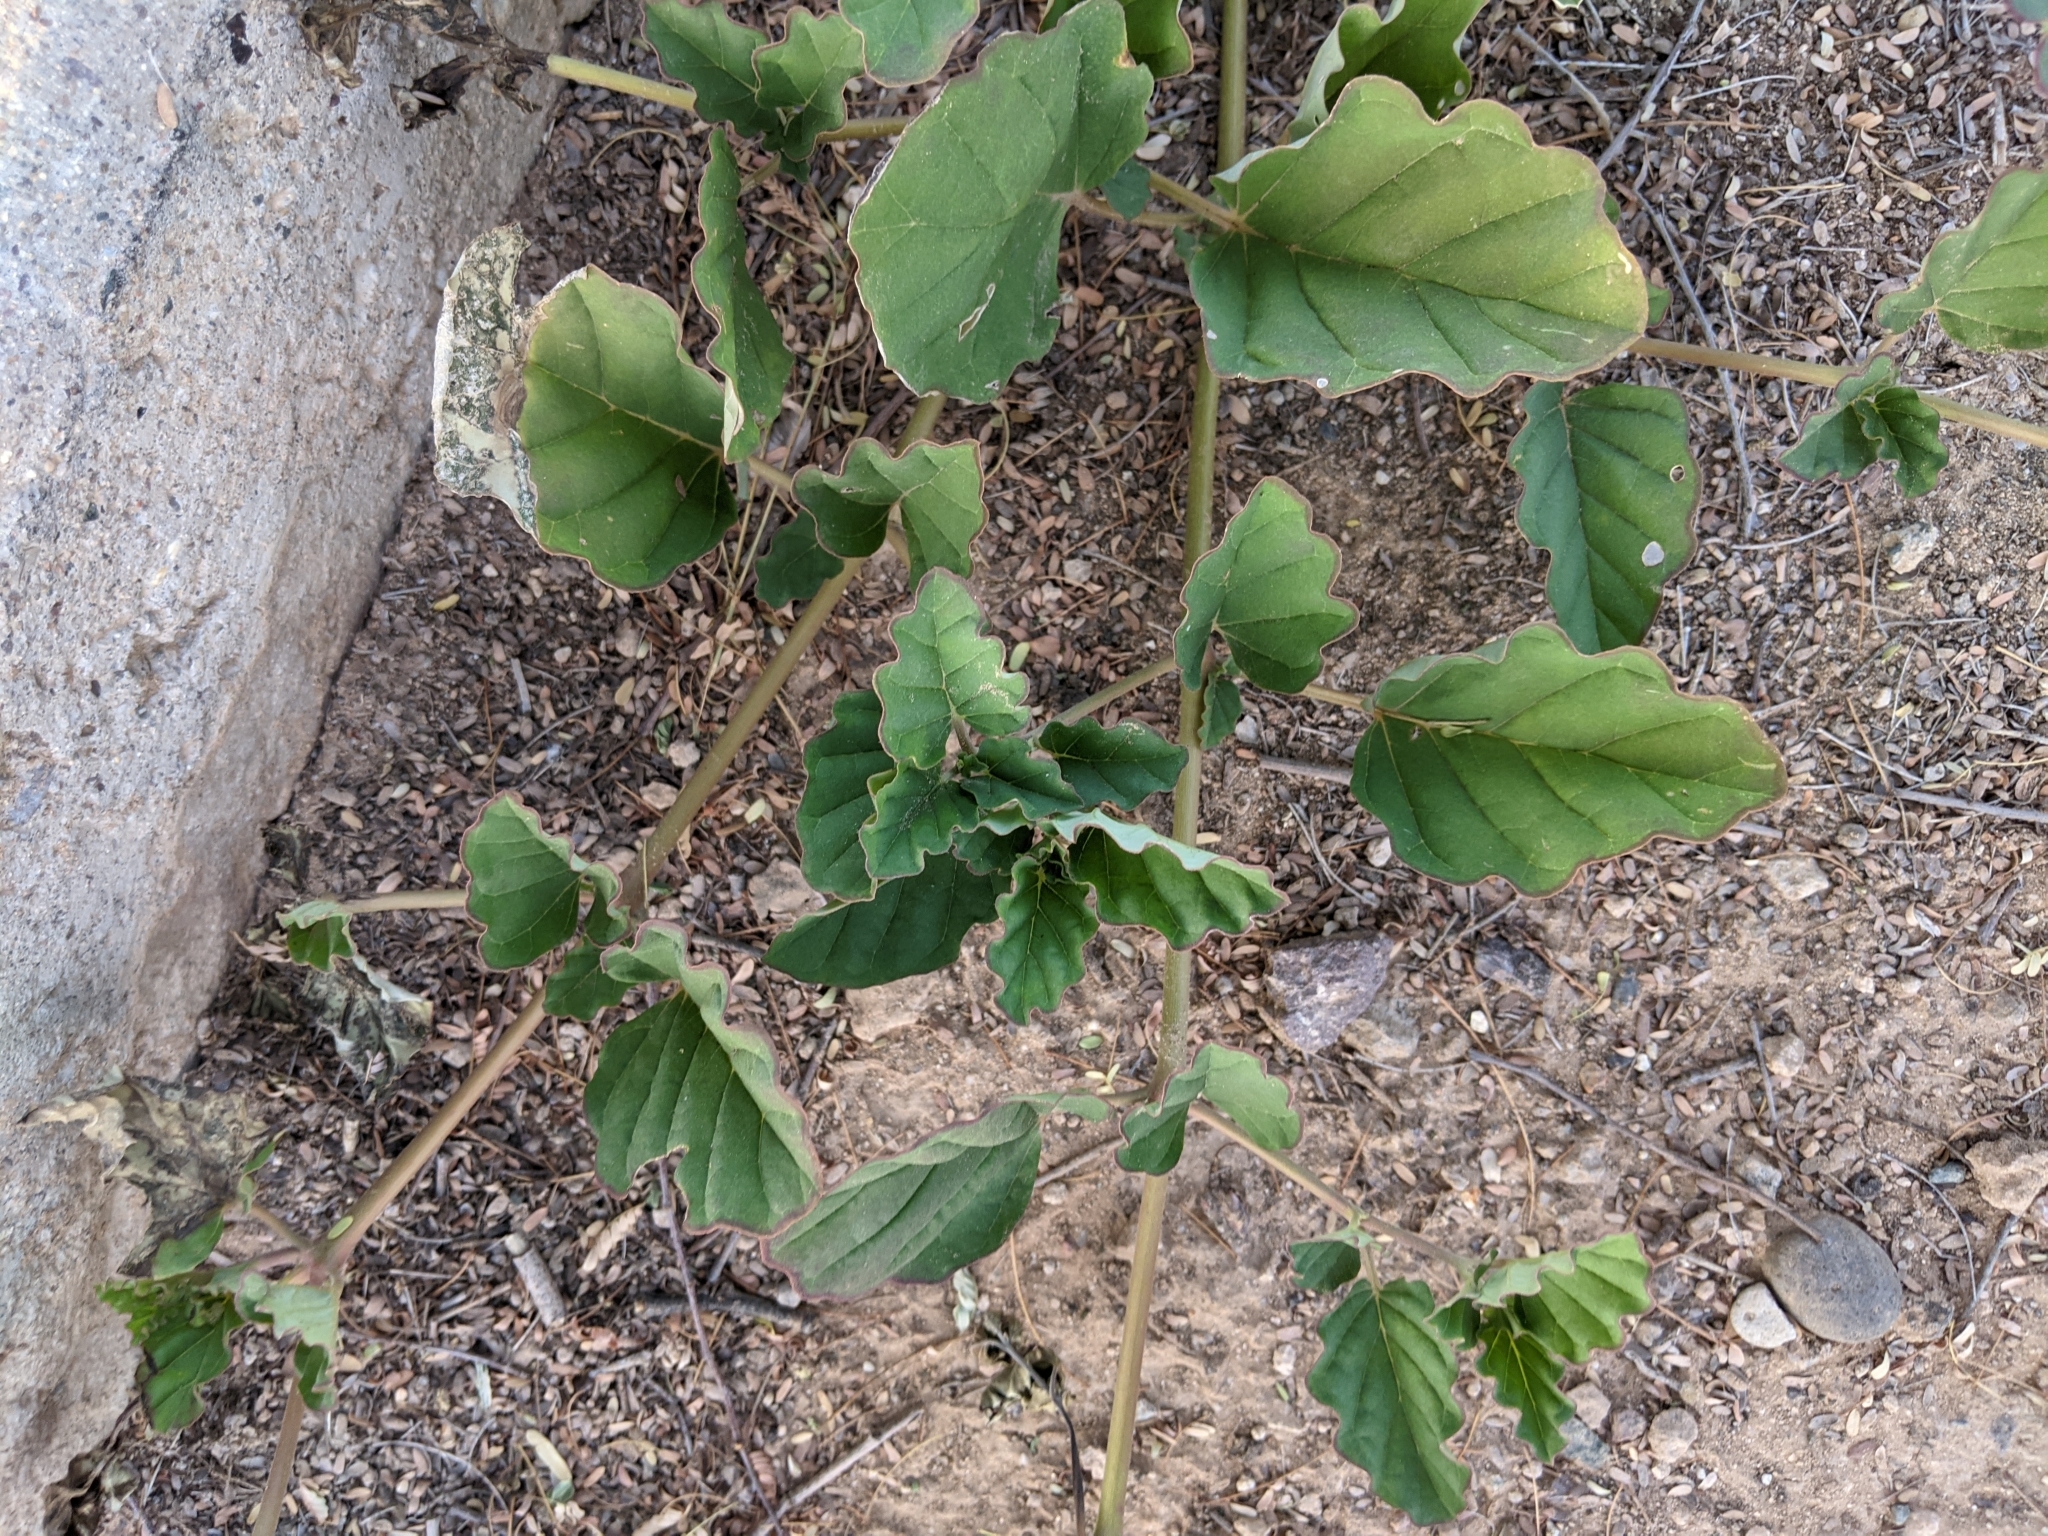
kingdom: Plantae
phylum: Tracheophyta
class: Magnoliopsida
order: Caryophyllales
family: Nyctaginaceae
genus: Boerhavia
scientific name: Boerhavia coccinea
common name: Scarlet spiderling
